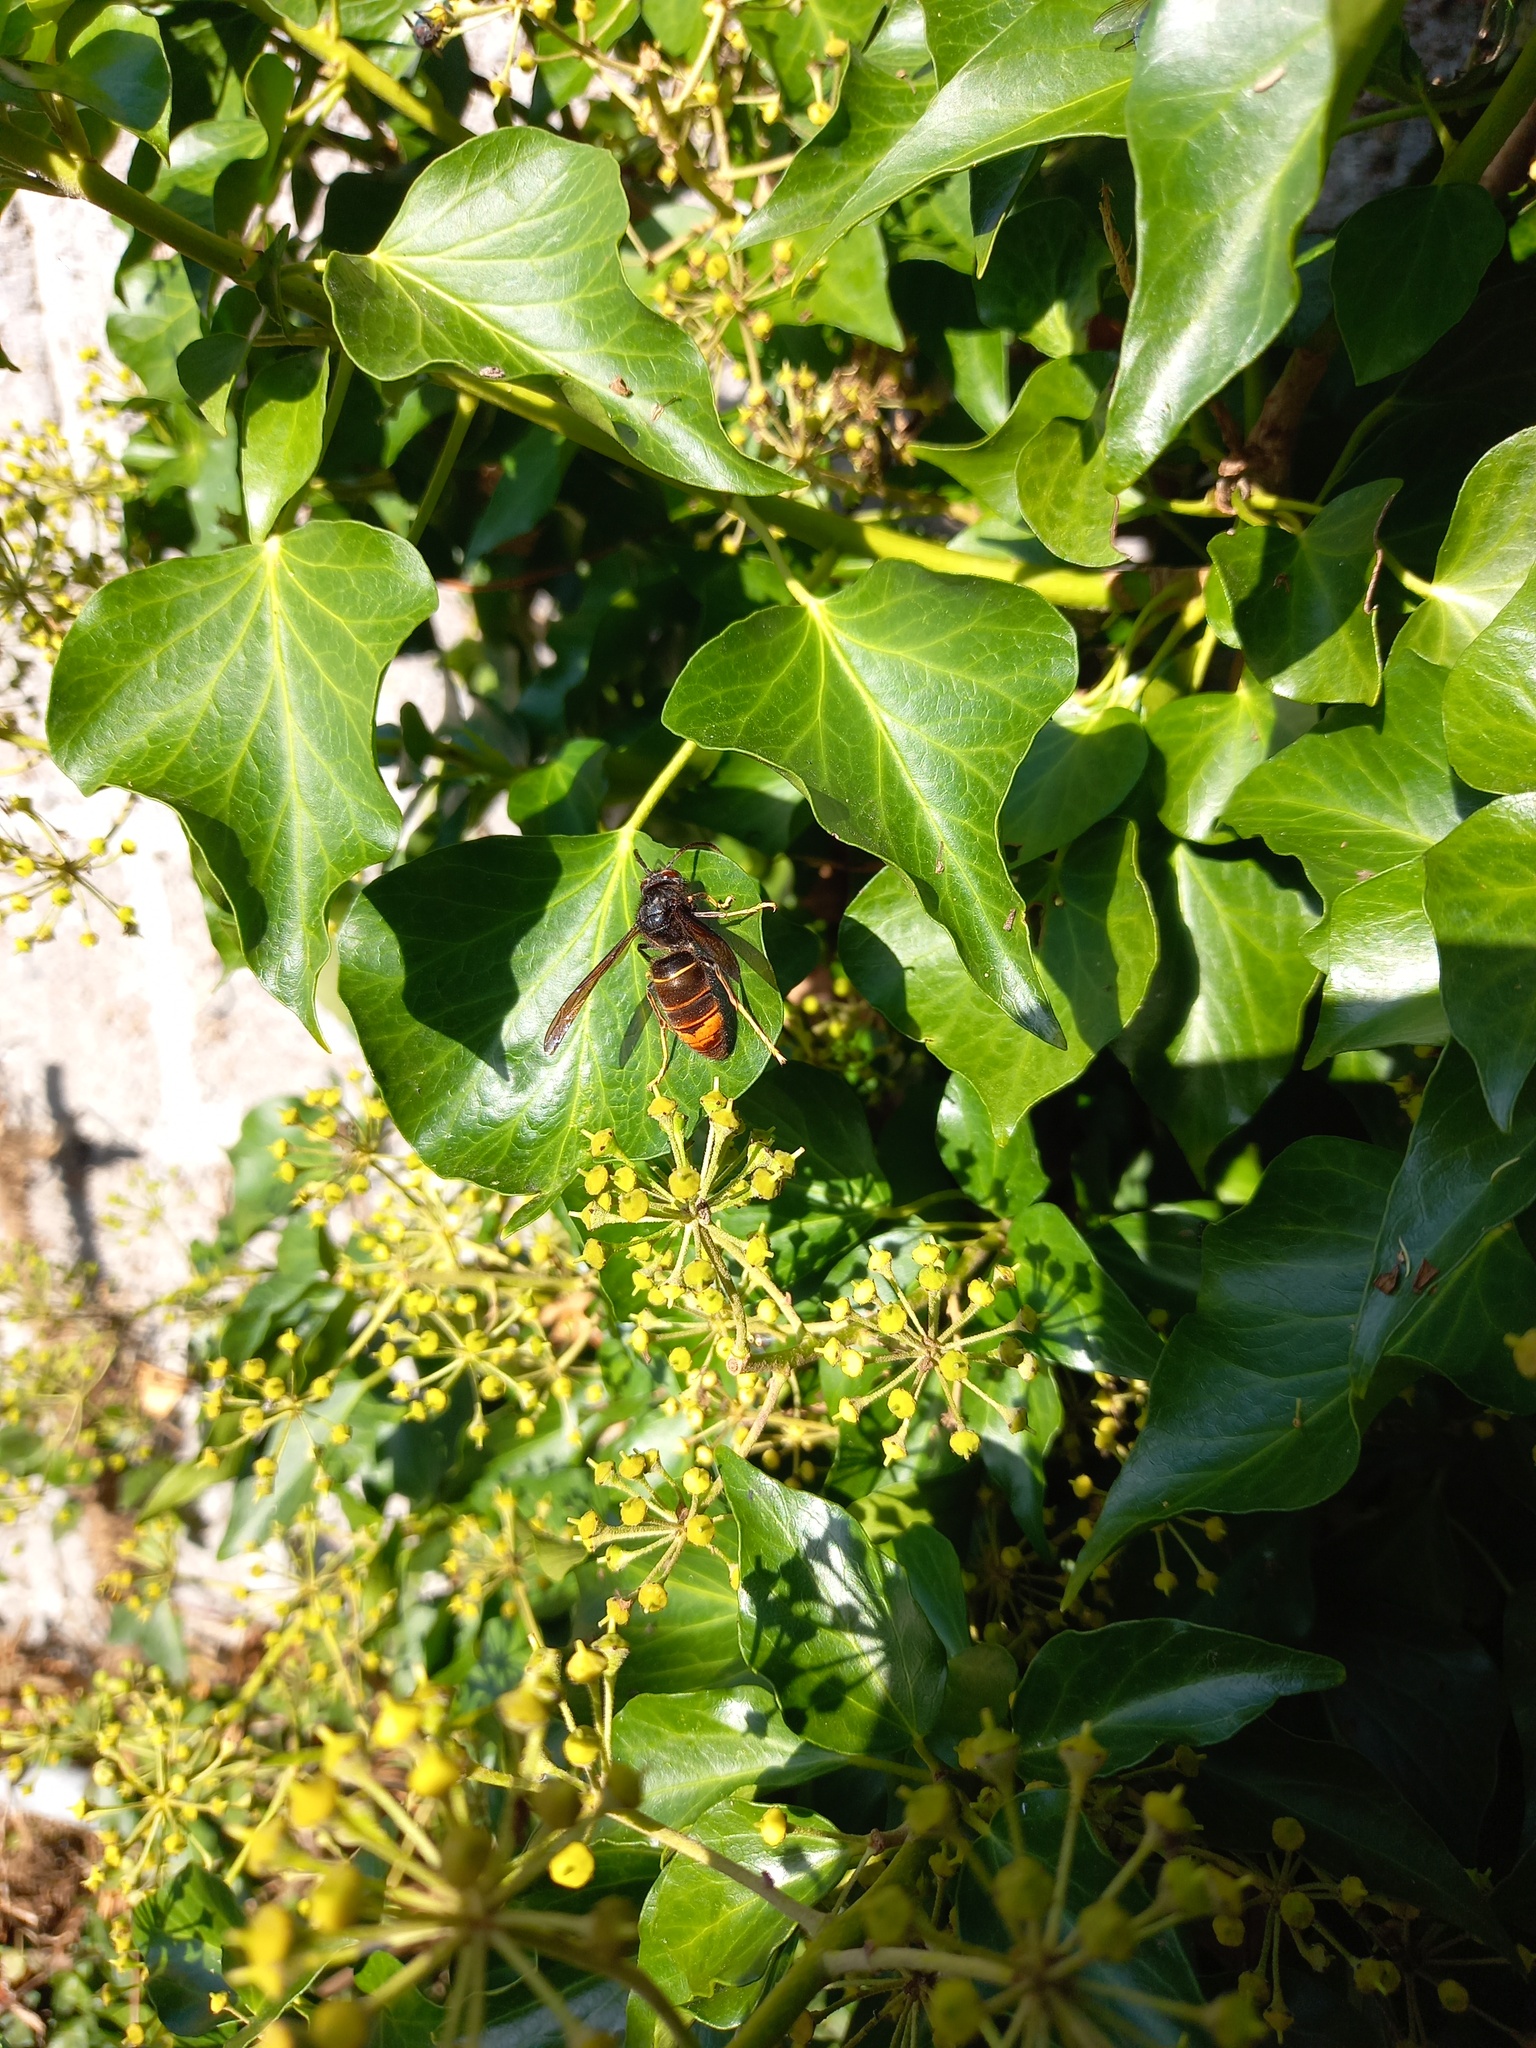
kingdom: Animalia
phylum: Arthropoda
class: Insecta
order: Hymenoptera
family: Vespidae
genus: Vespa
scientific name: Vespa velutina
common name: Asian hornet
